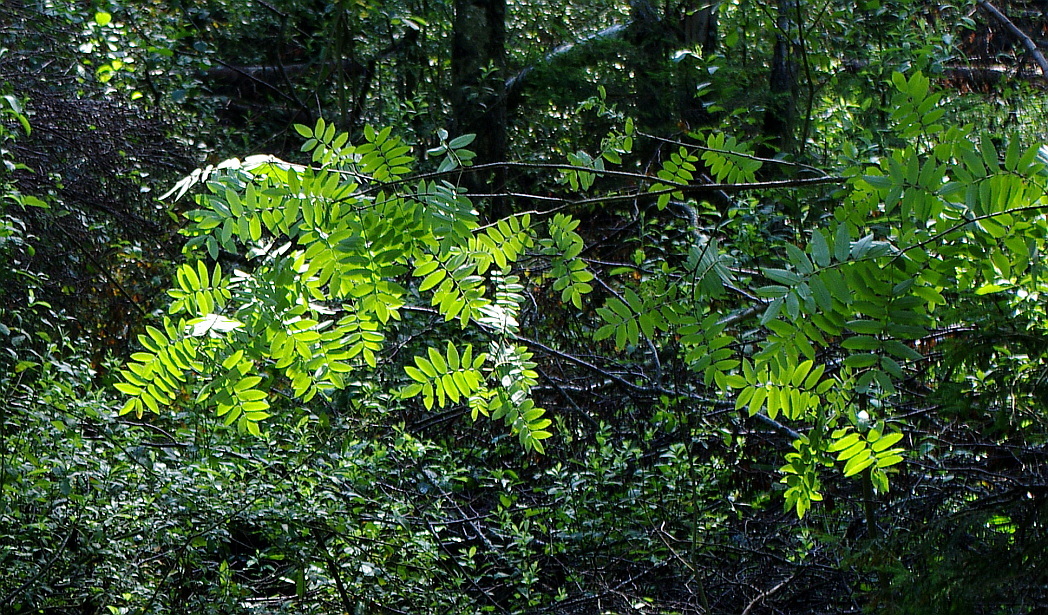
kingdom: Plantae
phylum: Tracheophyta
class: Magnoliopsida
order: Rosales
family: Rosaceae
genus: Sorbus
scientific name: Sorbus aucuparia
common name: Rowan
